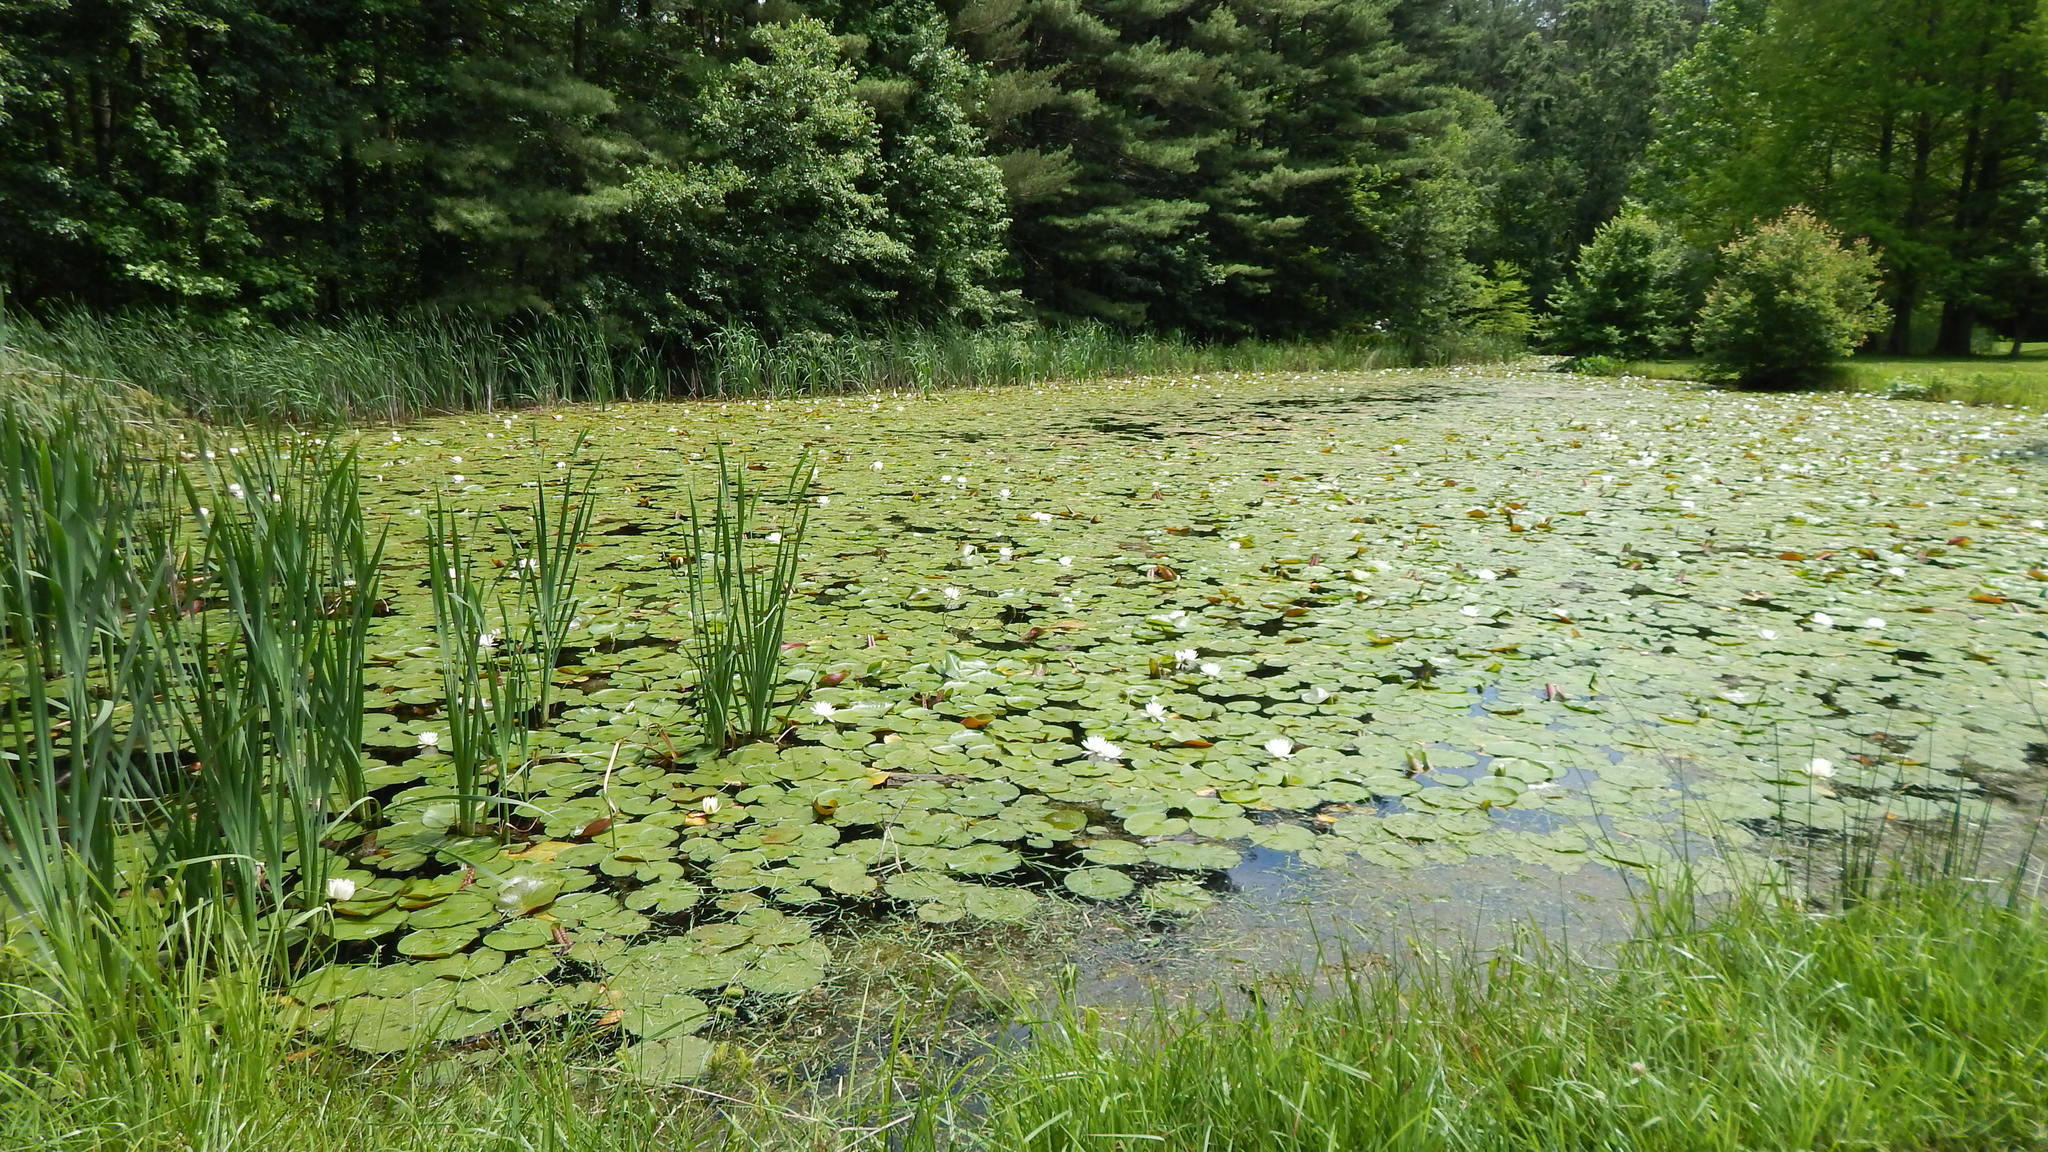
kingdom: Plantae
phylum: Tracheophyta
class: Magnoliopsida
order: Nymphaeales
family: Nymphaeaceae
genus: Nymphaea
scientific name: Nymphaea odorata
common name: Fragrant water-lily
